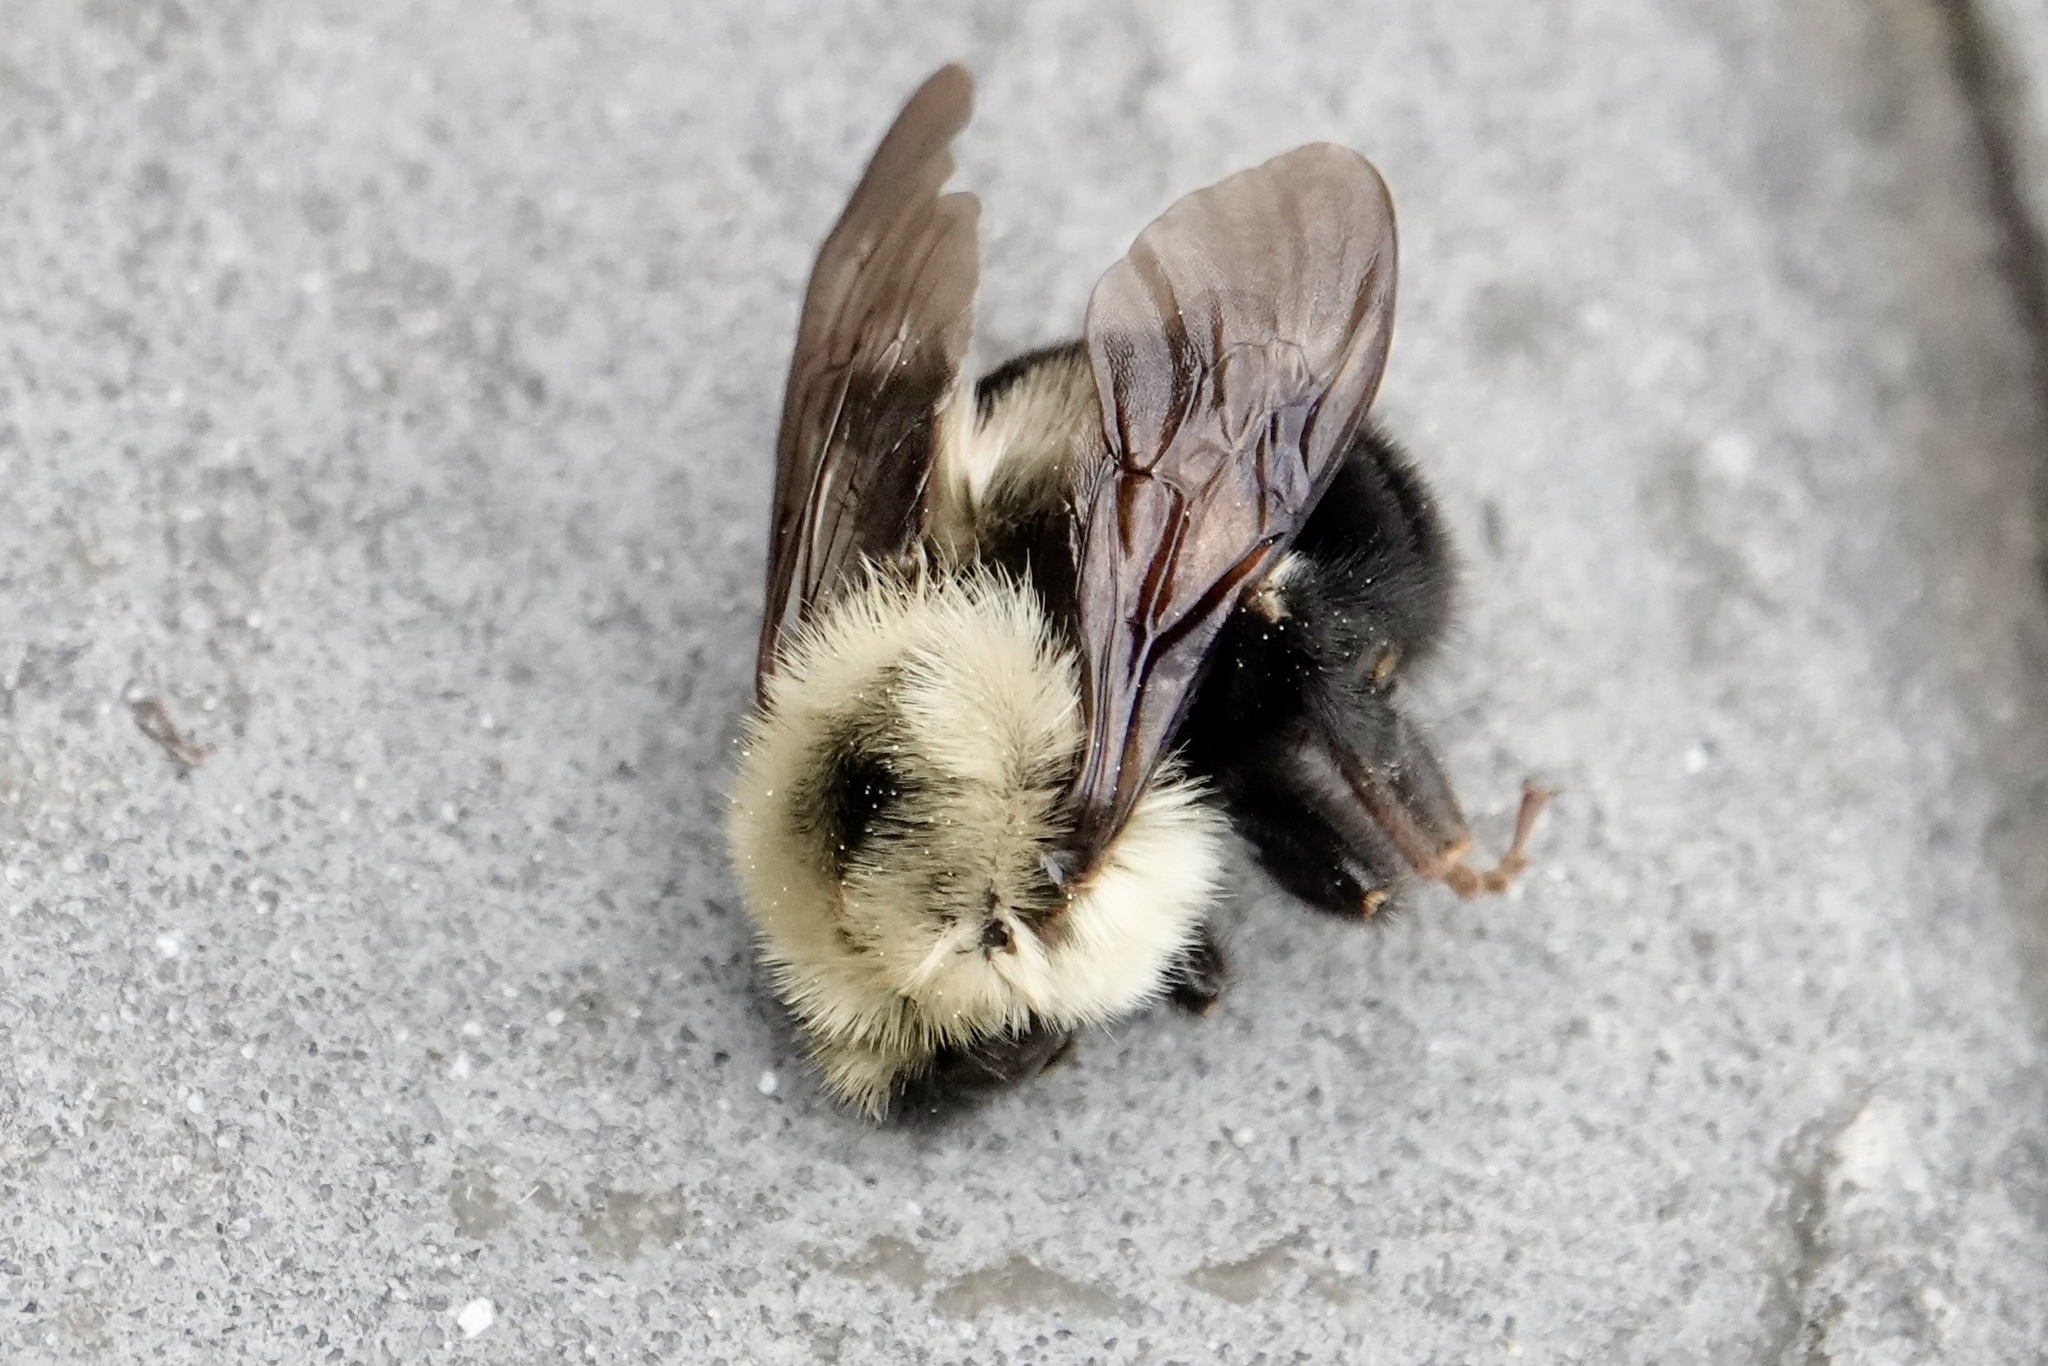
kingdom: Animalia
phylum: Arthropoda
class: Insecta
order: Hymenoptera
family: Apidae
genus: Bombus
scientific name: Bombus bimaculatus
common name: Two-spotted bumble bee
